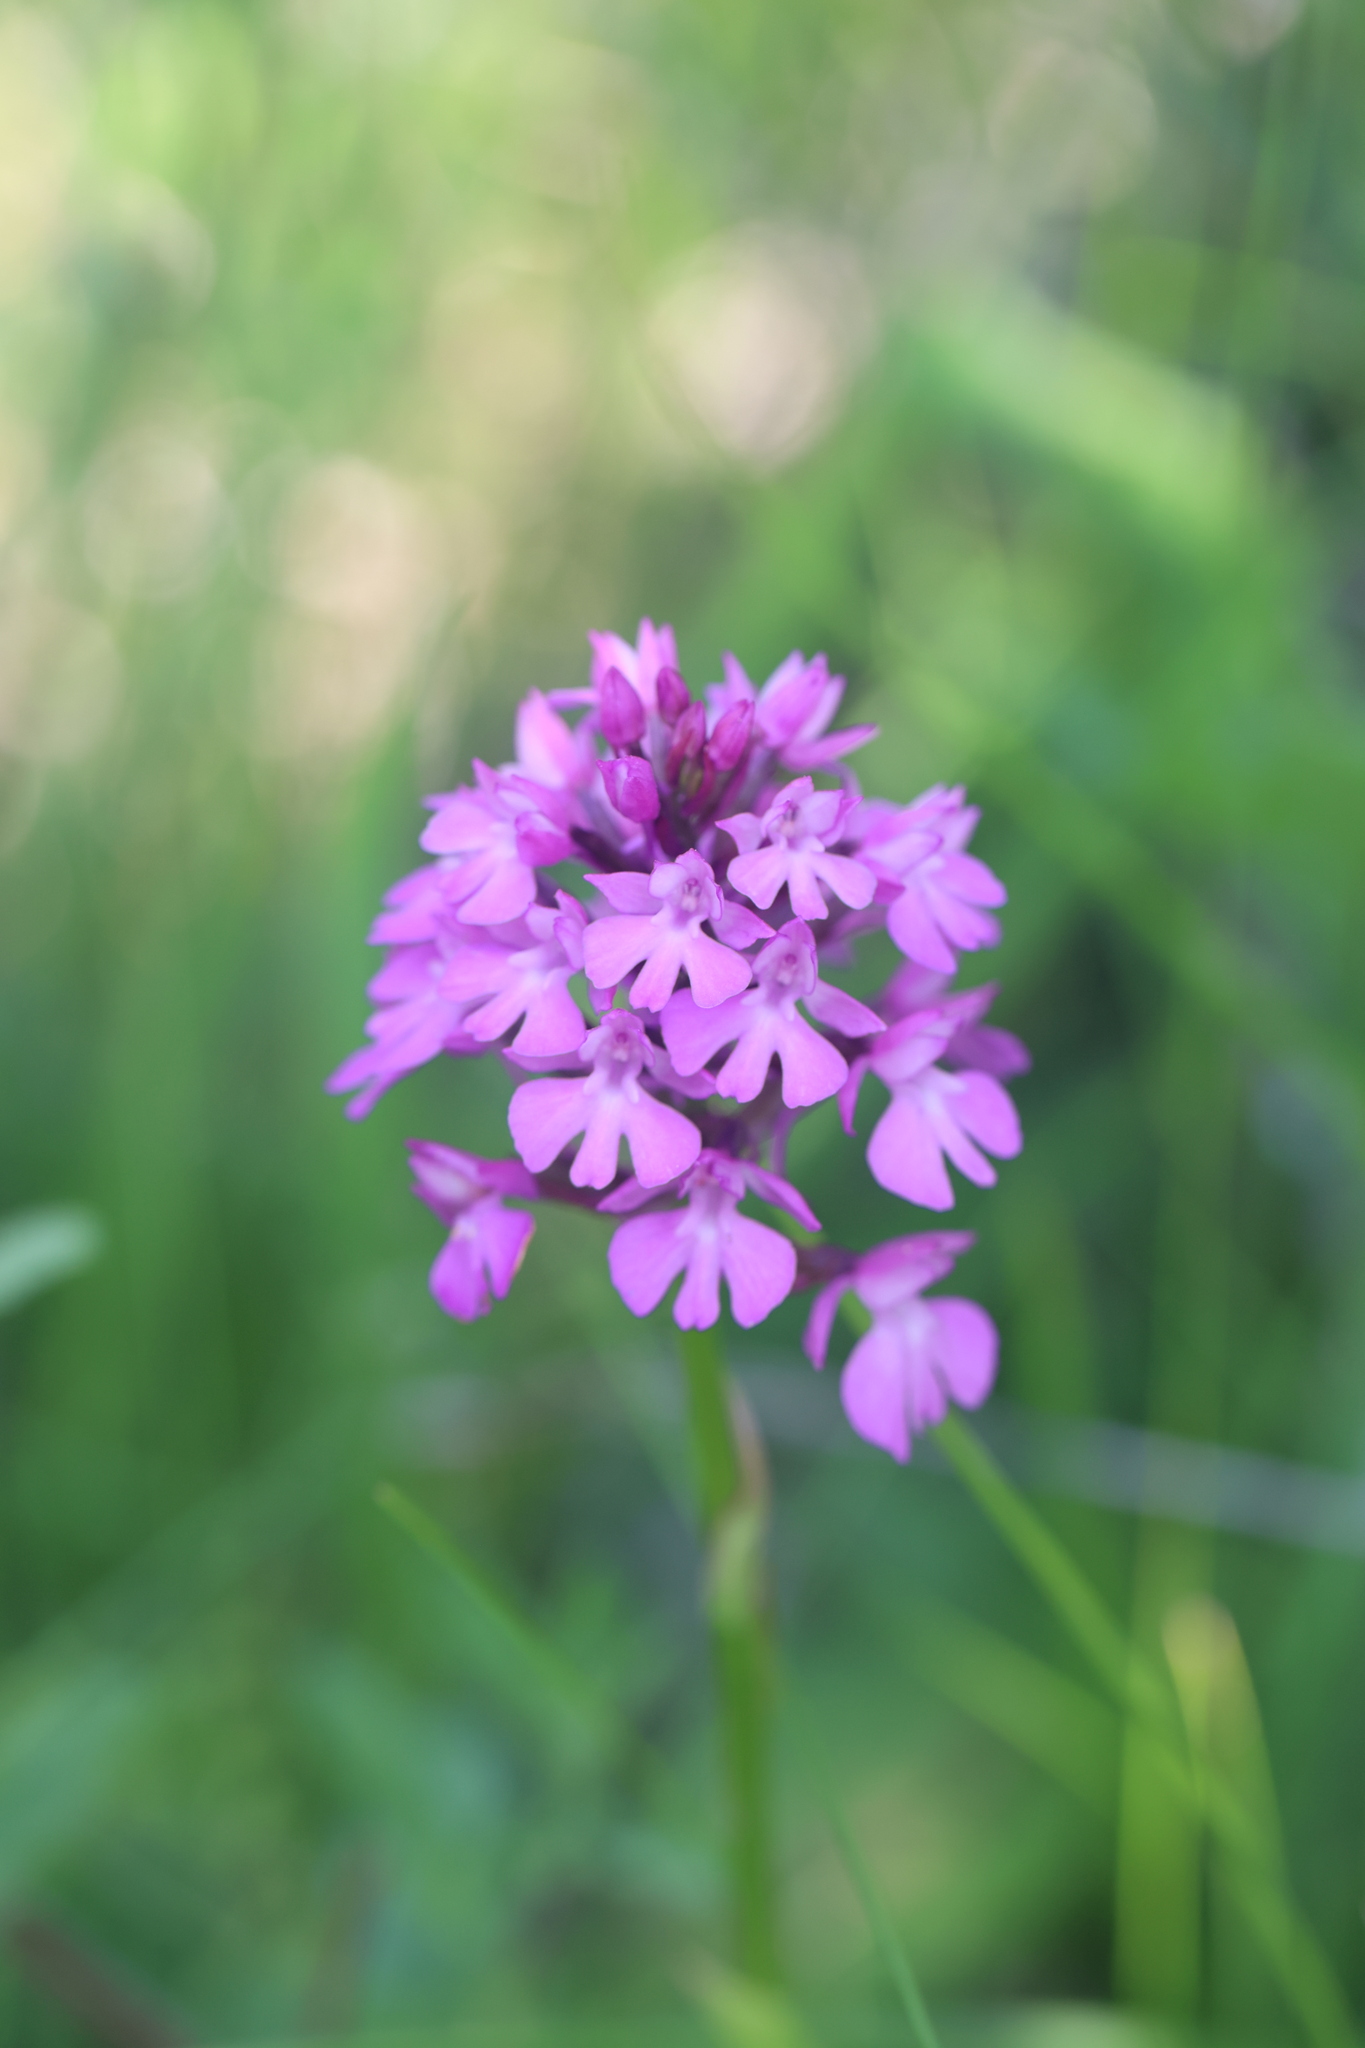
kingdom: Plantae
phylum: Tracheophyta
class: Liliopsida
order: Asparagales
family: Orchidaceae
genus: Anacamptis
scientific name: Anacamptis pyramidalis
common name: Pyramidal orchid
